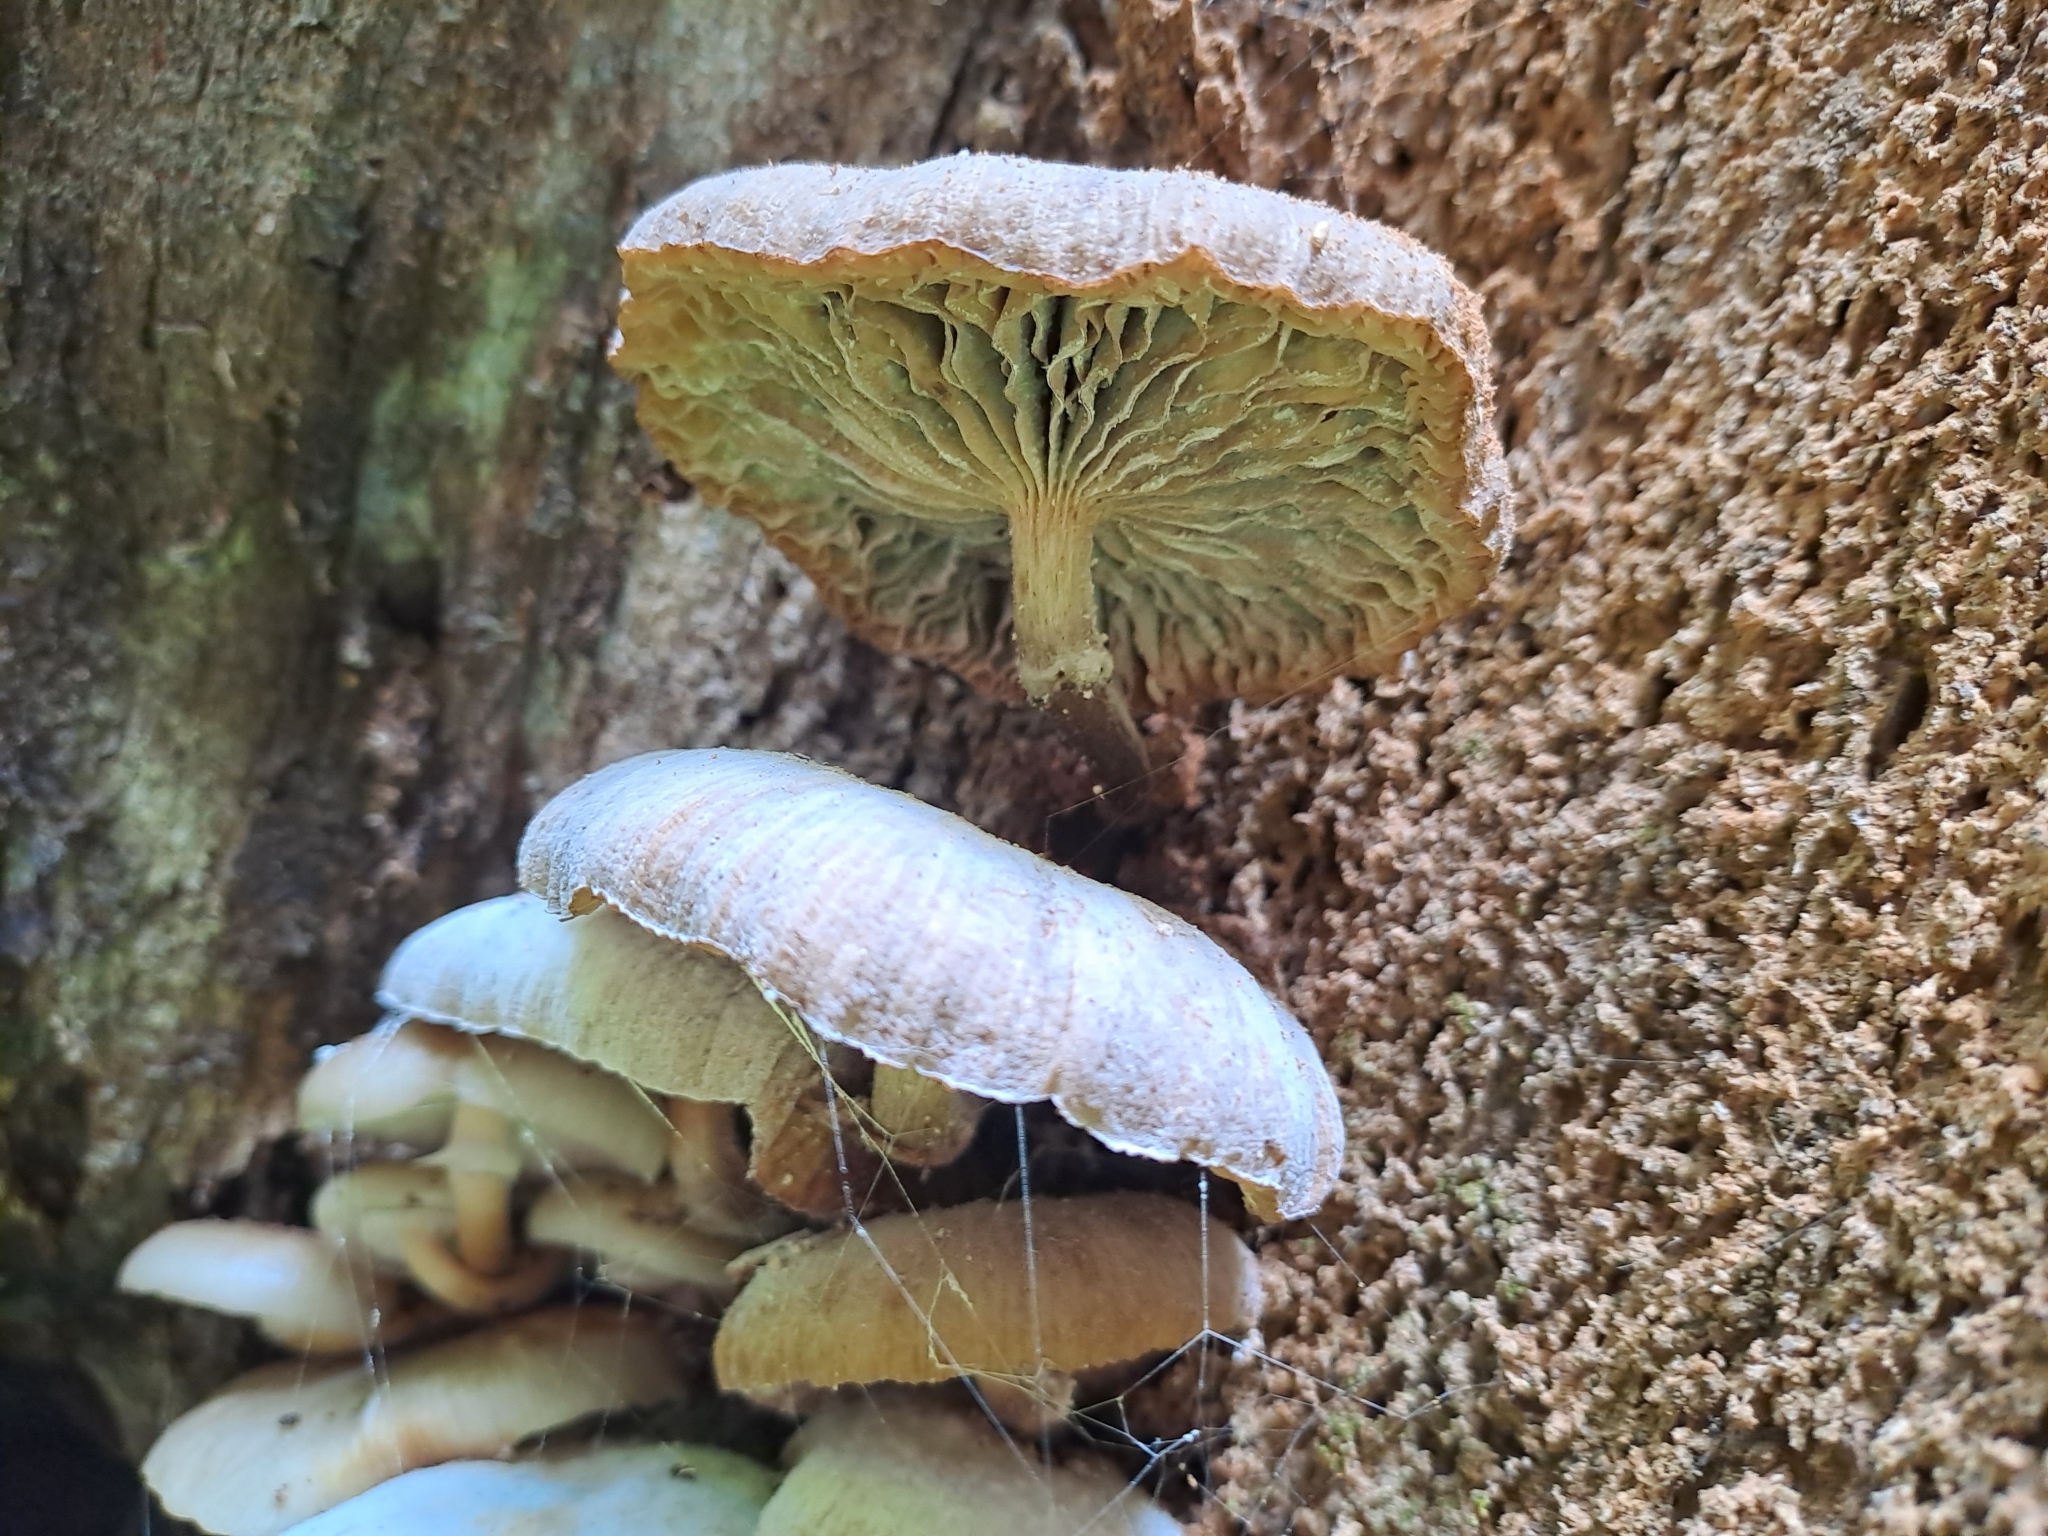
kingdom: Fungi
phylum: Basidiomycota
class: Agaricomycetes
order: Agaricales
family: Physalacriaceae
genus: Armillaria
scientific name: Armillaria novae-zelandiae
